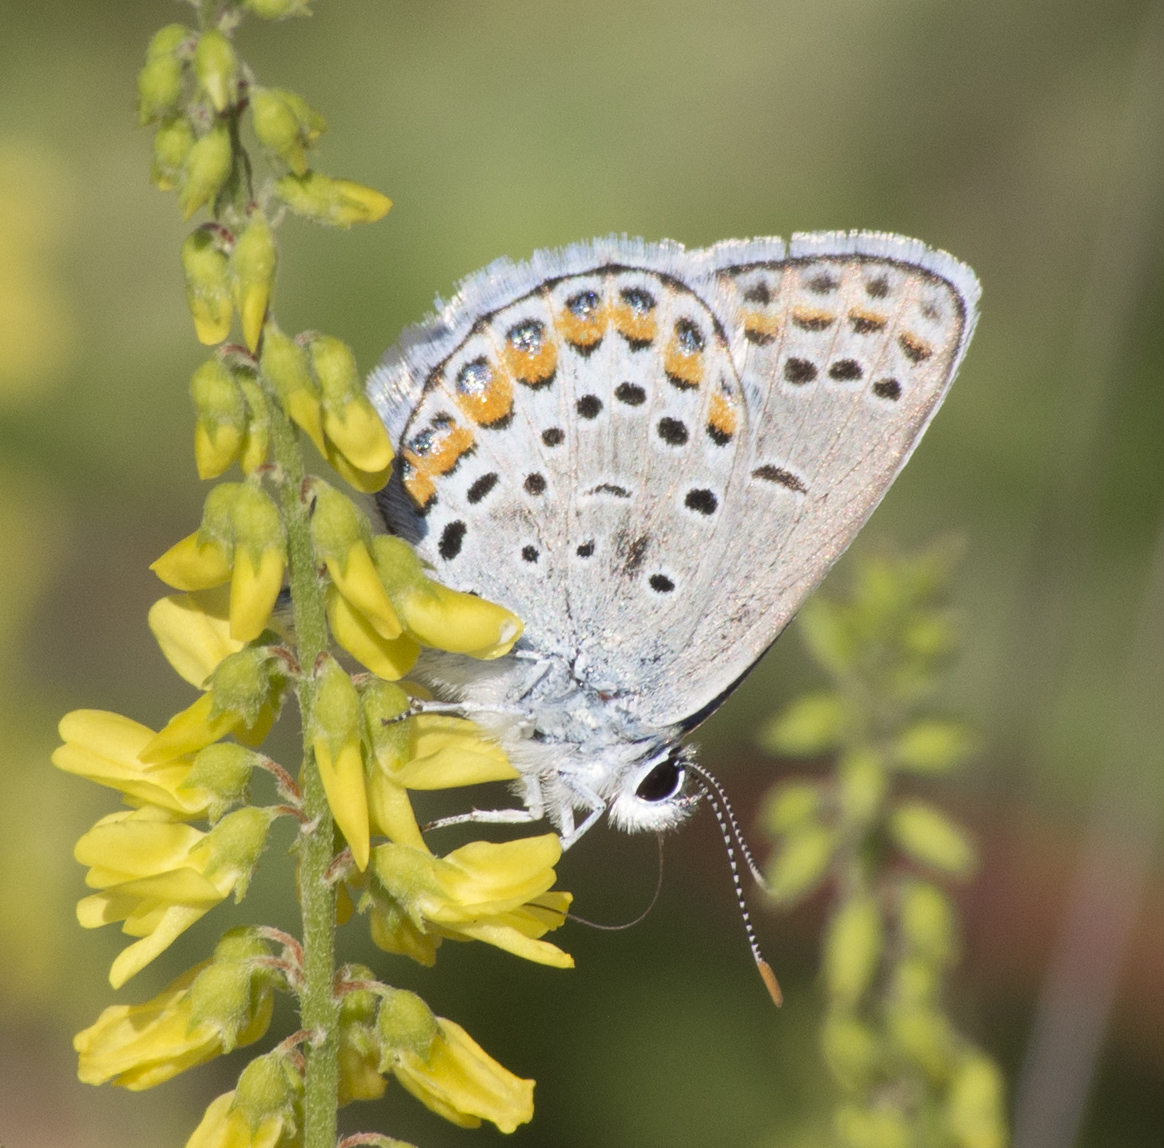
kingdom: Animalia
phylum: Arthropoda
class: Insecta
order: Lepidoptera
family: Lycaenidae
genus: Lycaeides
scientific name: Lycaeides melissa
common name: Melissa blue
